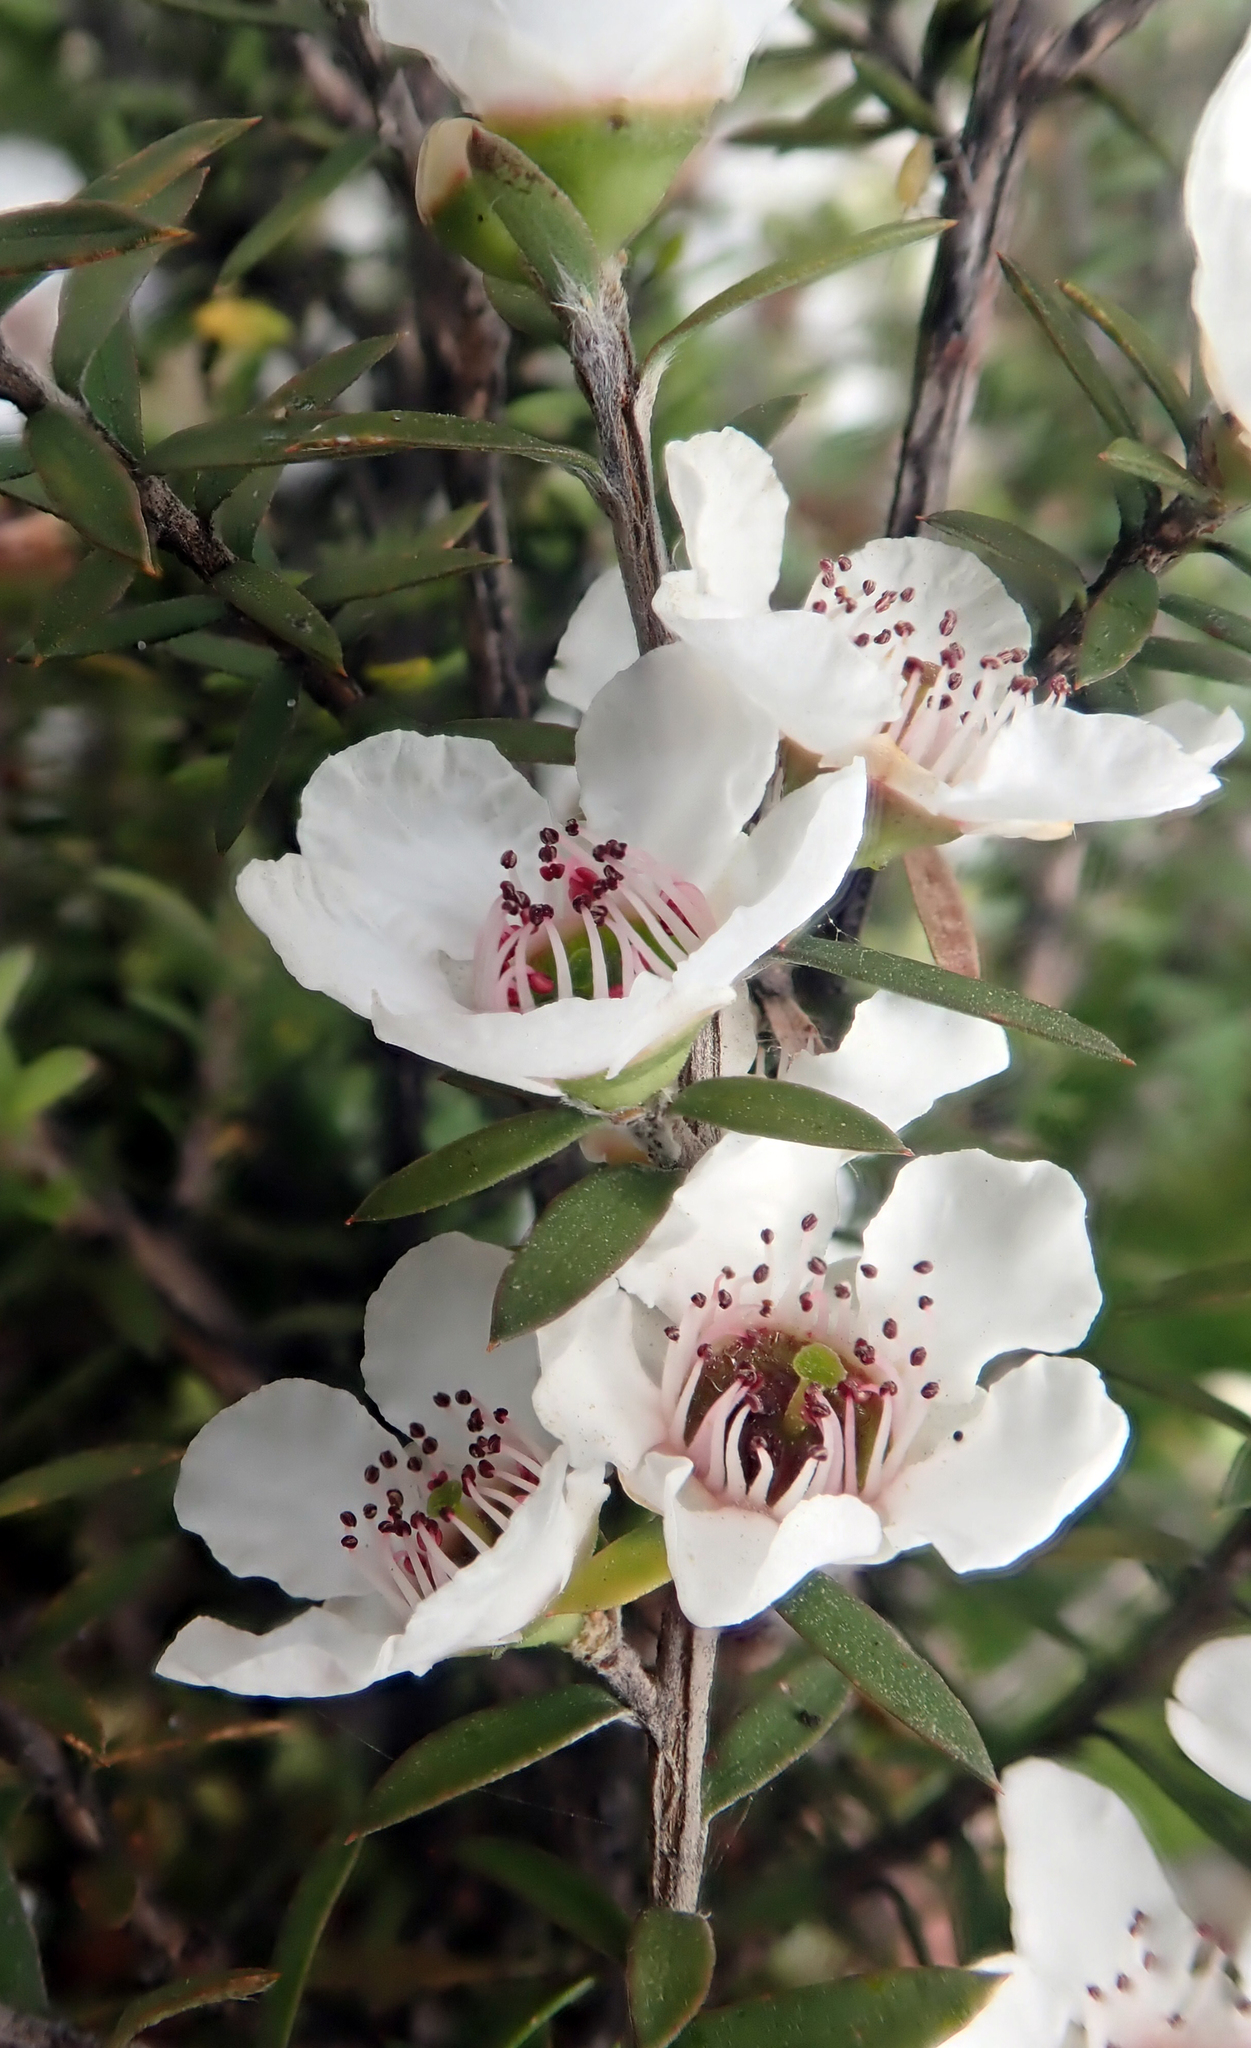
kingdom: Plantae
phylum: Tracheophyta
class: Magnoliopsida
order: Myrtales
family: Myrtaceae
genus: Leptospermum
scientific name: Leptospermum scoparium
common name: Broom tea-tree
